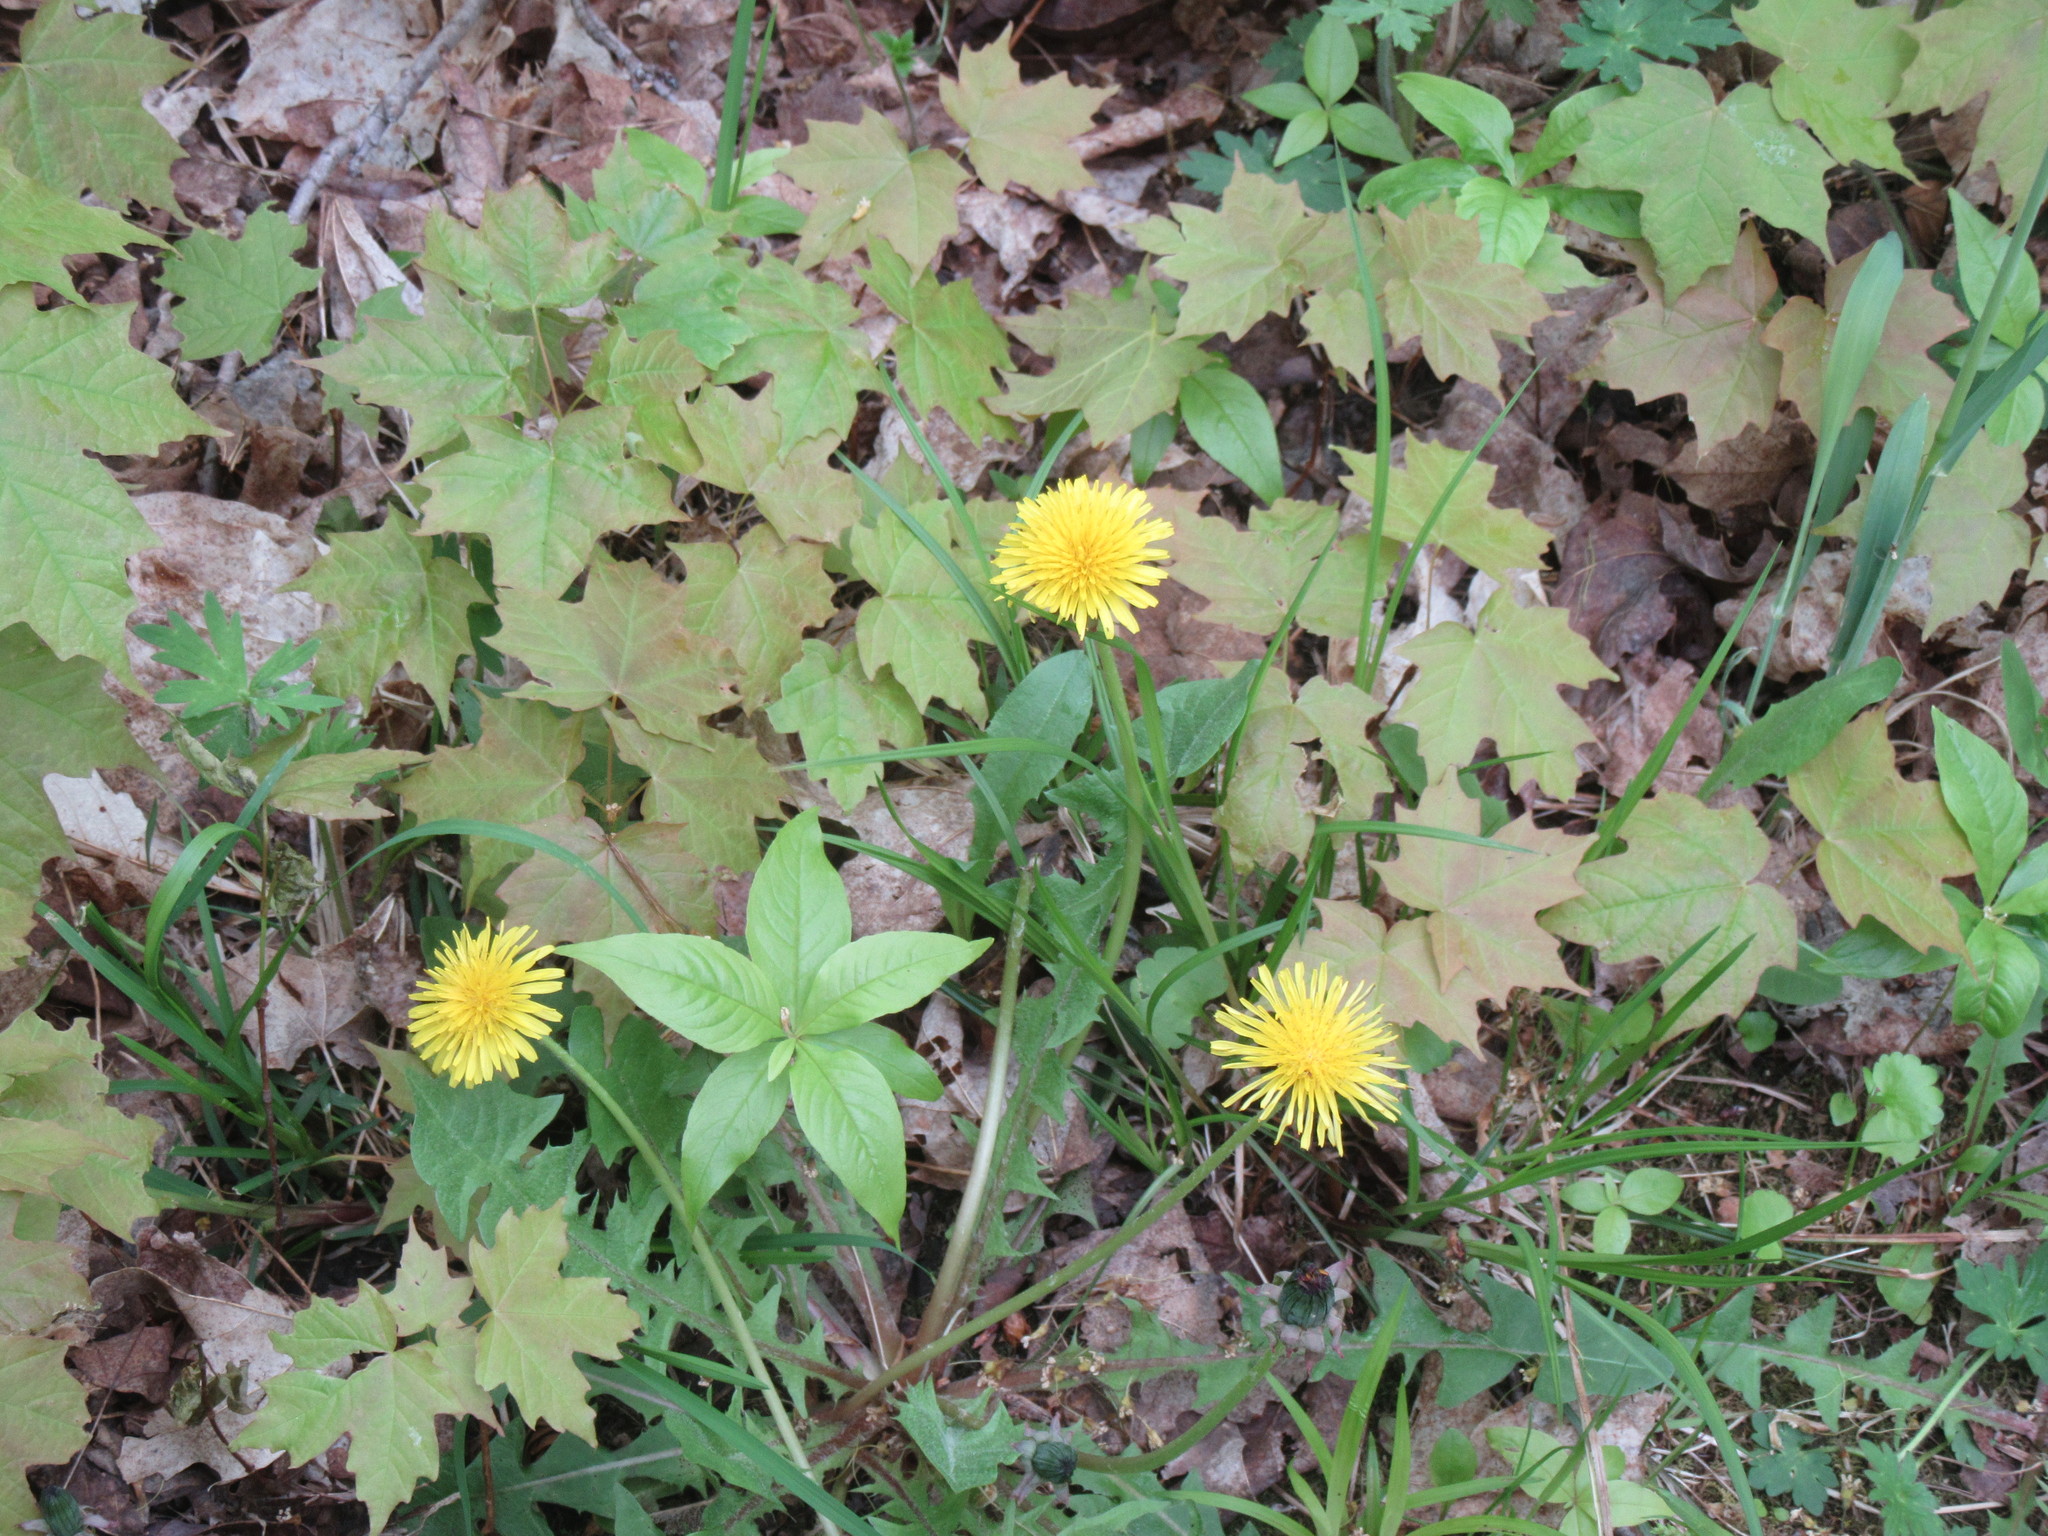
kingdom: Plantae
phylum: Tracheophyta
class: Magnoliopsida
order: Asterales
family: Asteraceae
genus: Taraxacum
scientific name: Taraxacum officinale
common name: Common dandelion
